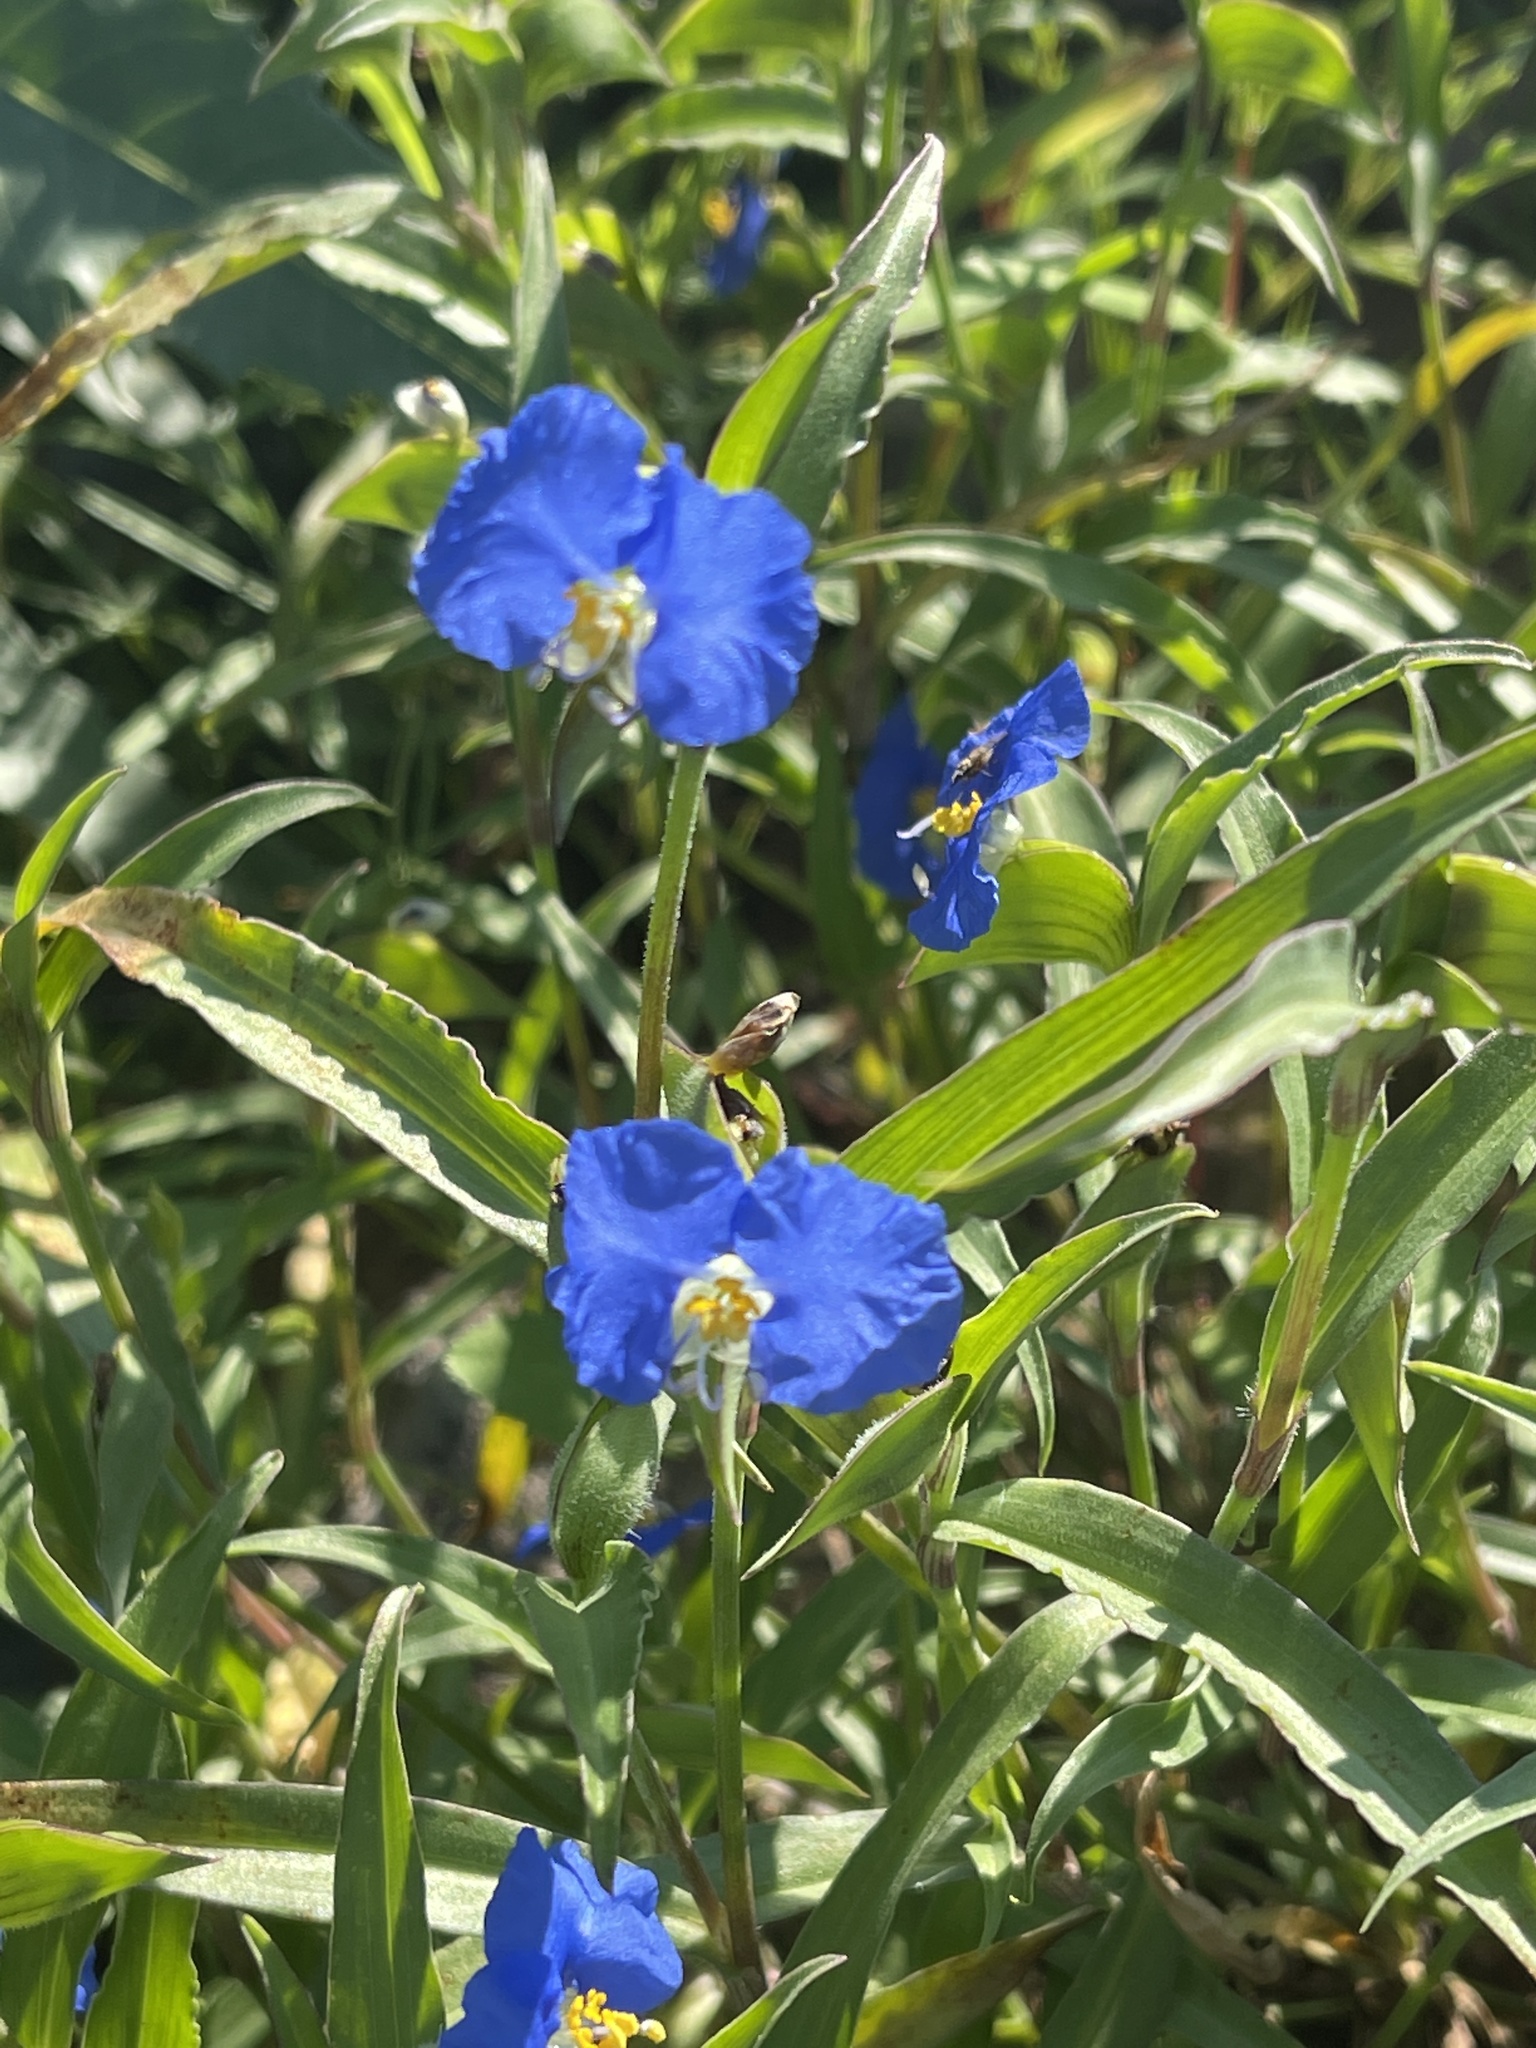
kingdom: Plantae
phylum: Tracheophyta
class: Liliopsida
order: Commelinales
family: Commelinaceae
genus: Commelina
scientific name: Commelina erecta
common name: Blousel blommetjie
